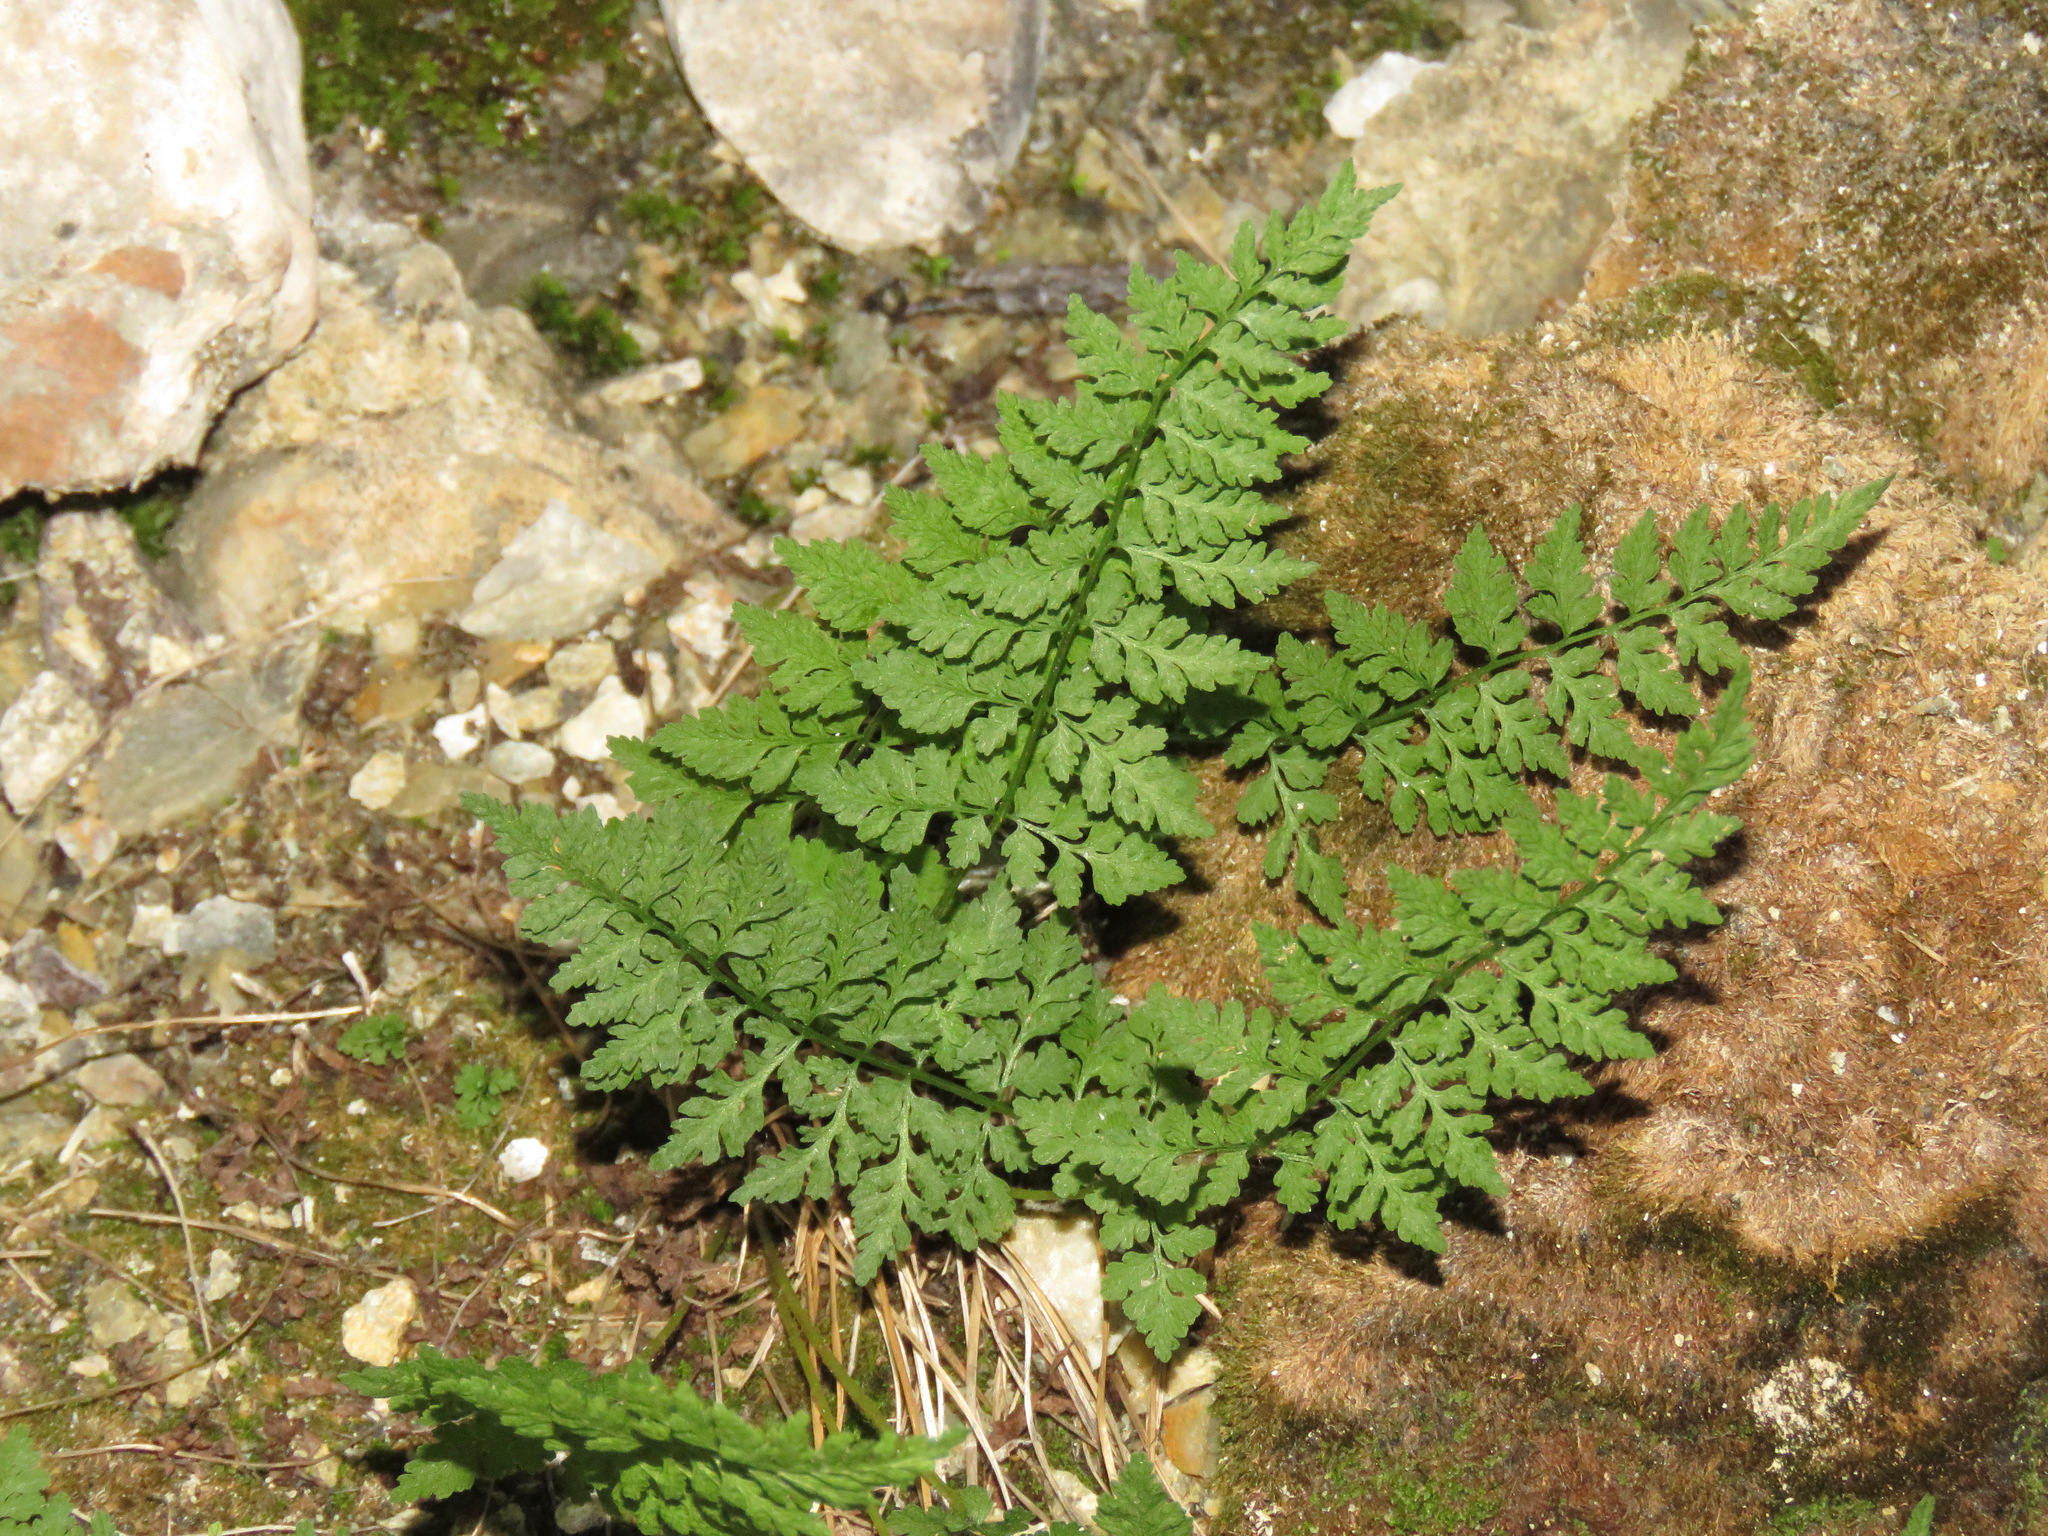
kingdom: Plantae
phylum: Tracheophyta
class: Polypodiopsida
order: Polypodiales
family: Cystopteridaceae
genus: Cystopteris
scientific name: Cystopteris fragilis
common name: Brittle bladder fern
